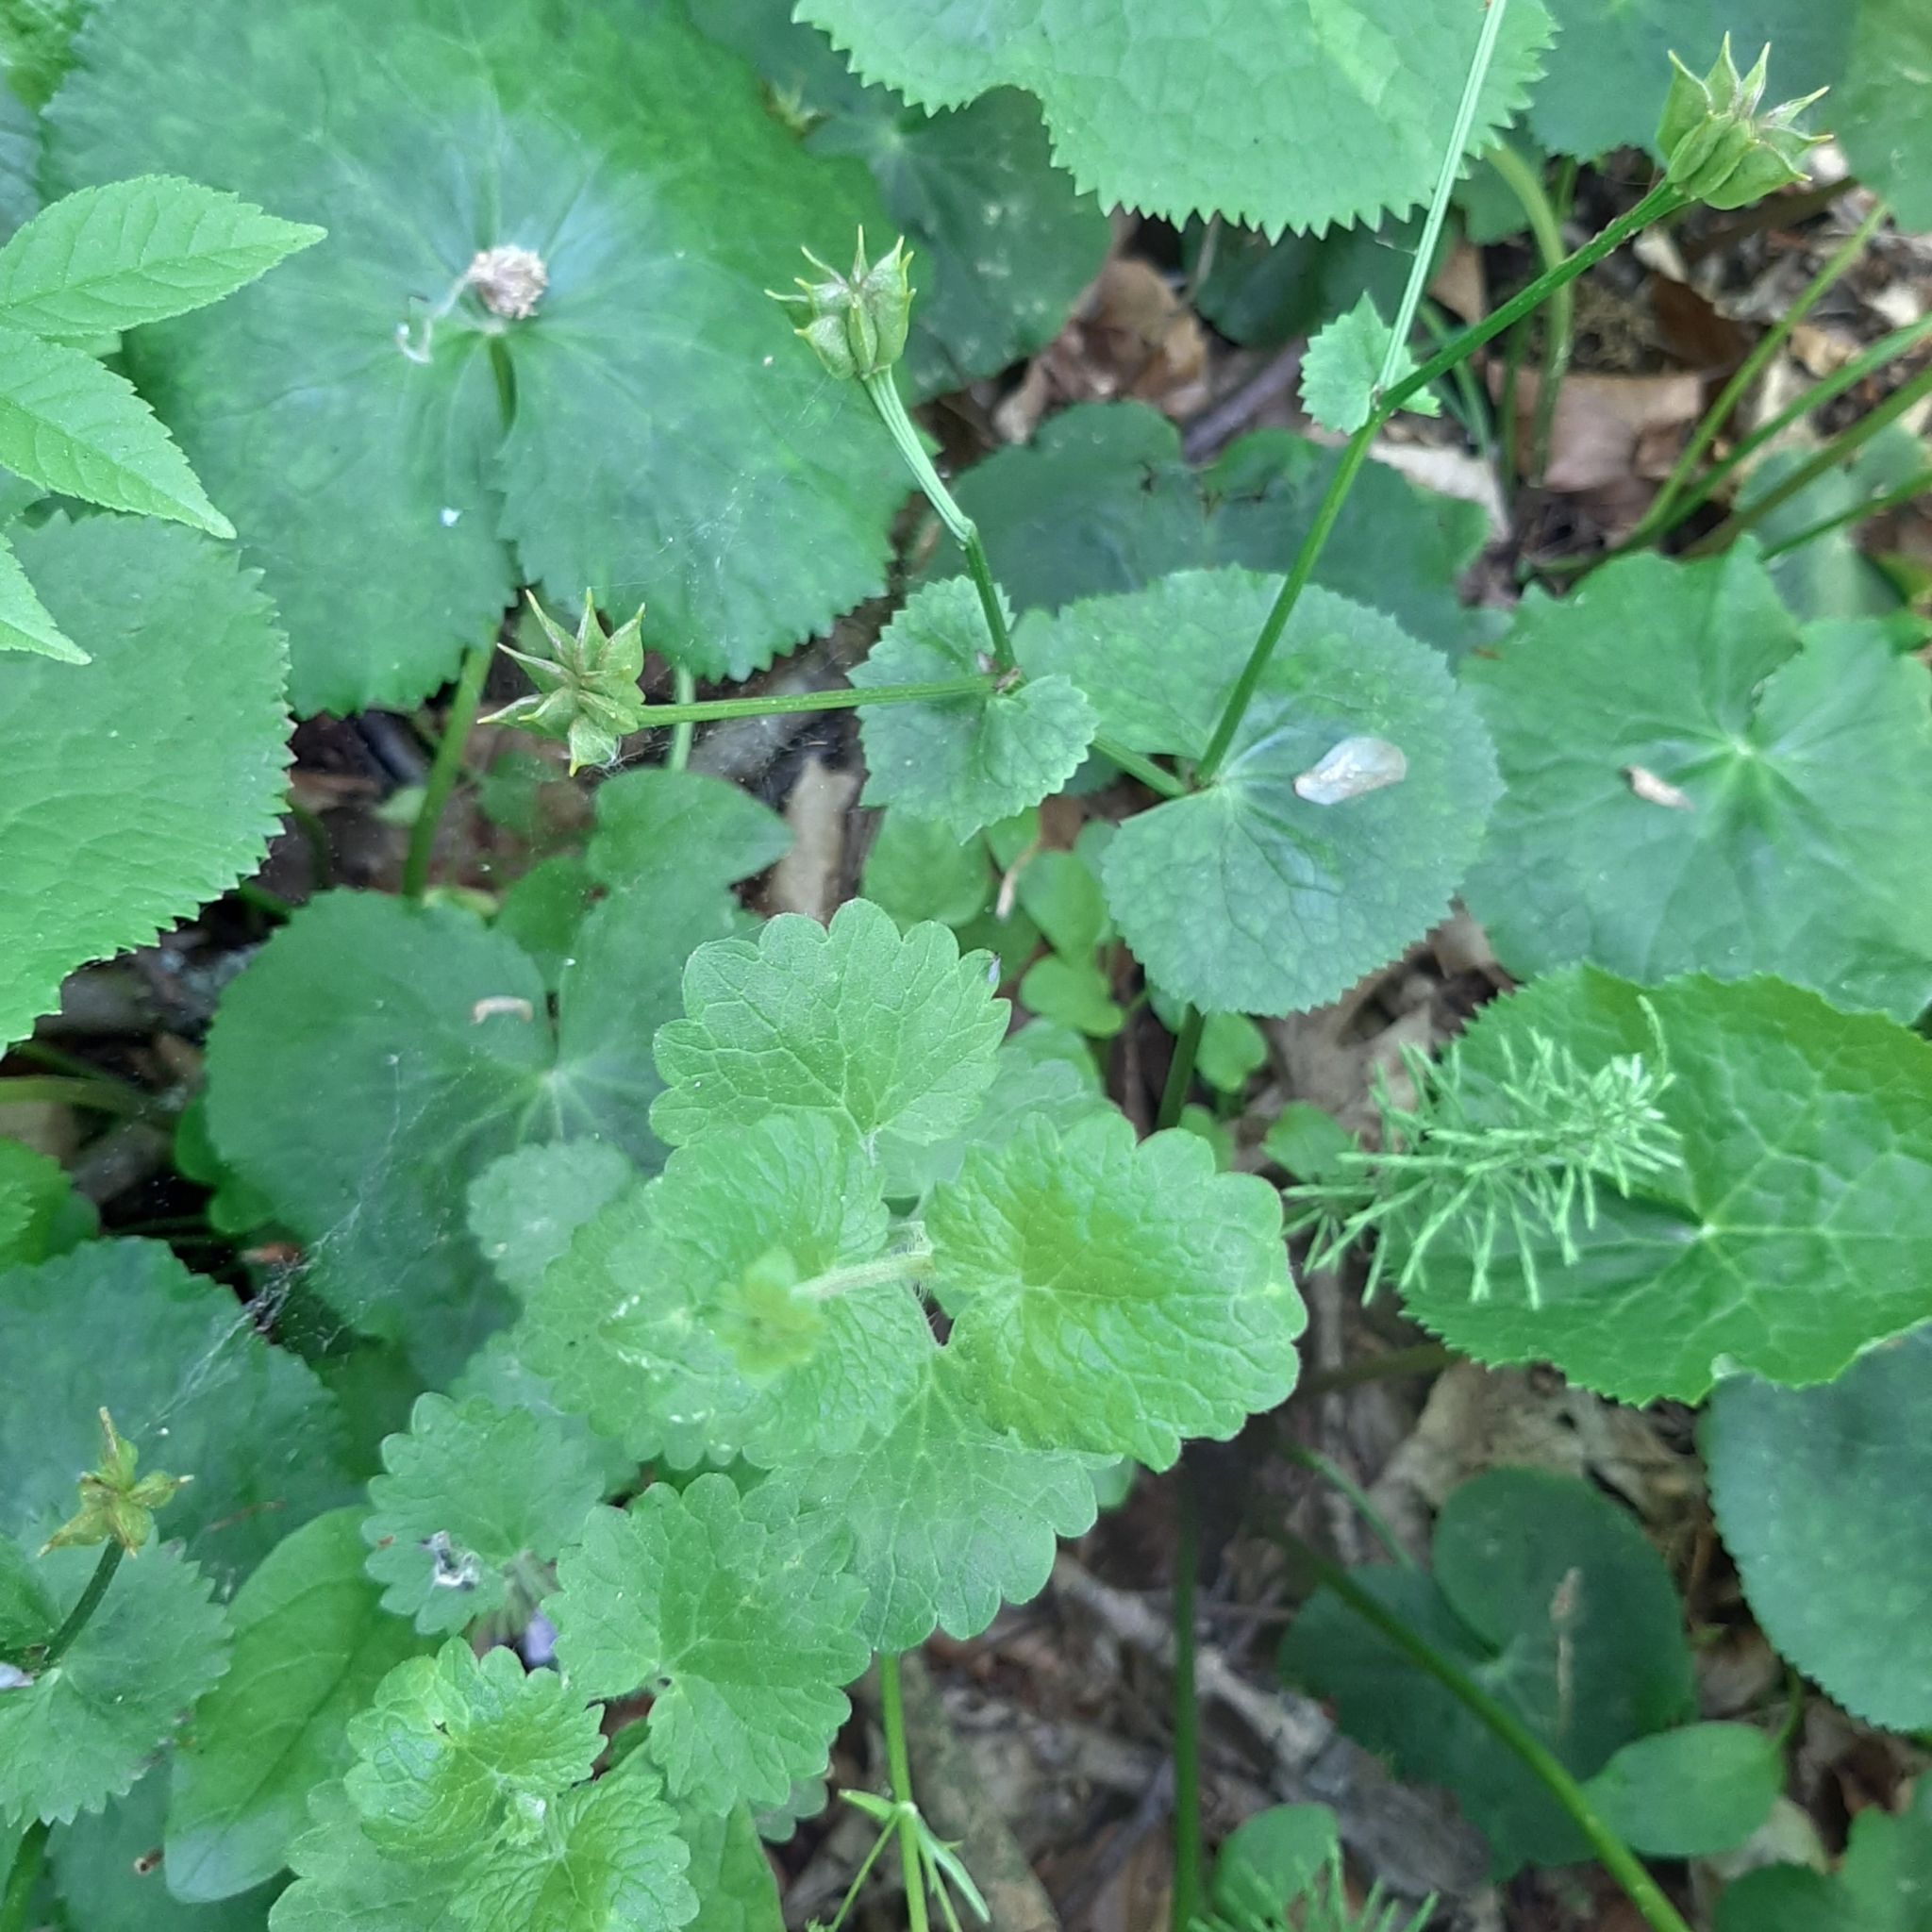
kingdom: Plantae
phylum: Tracheophyta
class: Magnoliopsida
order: Lamiales
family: Lamiaceae
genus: Glechoma
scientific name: Glechoma hederacea
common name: Ground ivy
